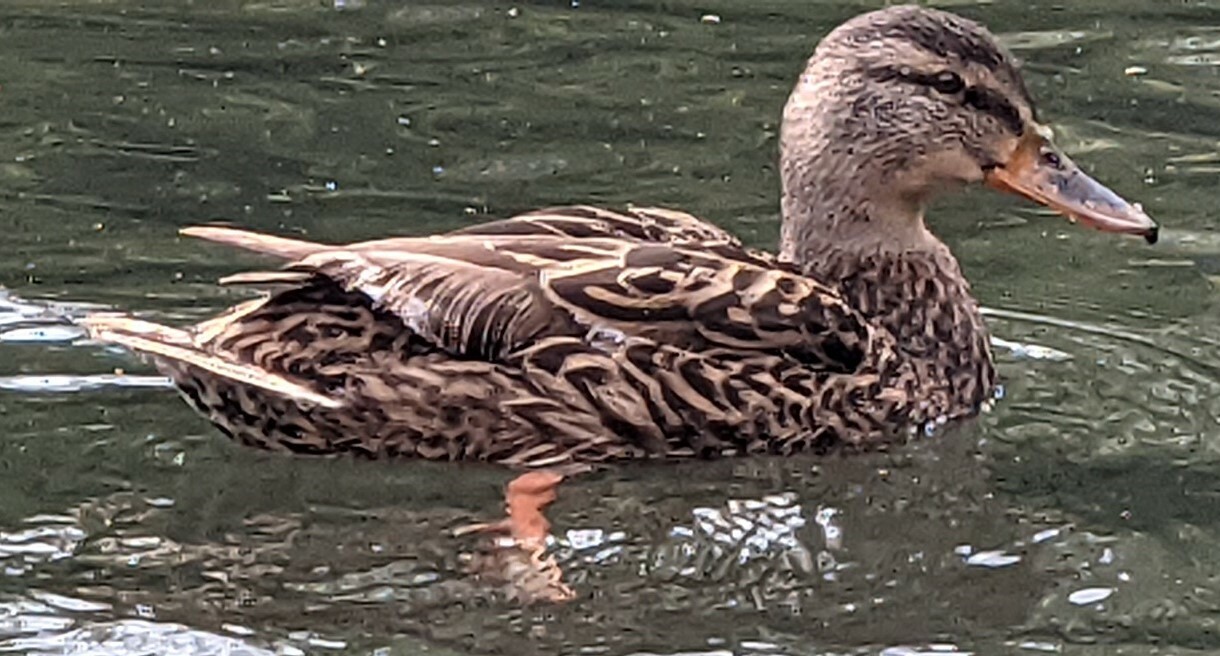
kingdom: Animalia
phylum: Chordata
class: Aves
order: Anseriformes
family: Anatidae
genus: Anas
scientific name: Anas platyrhynchos
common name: Mallard
